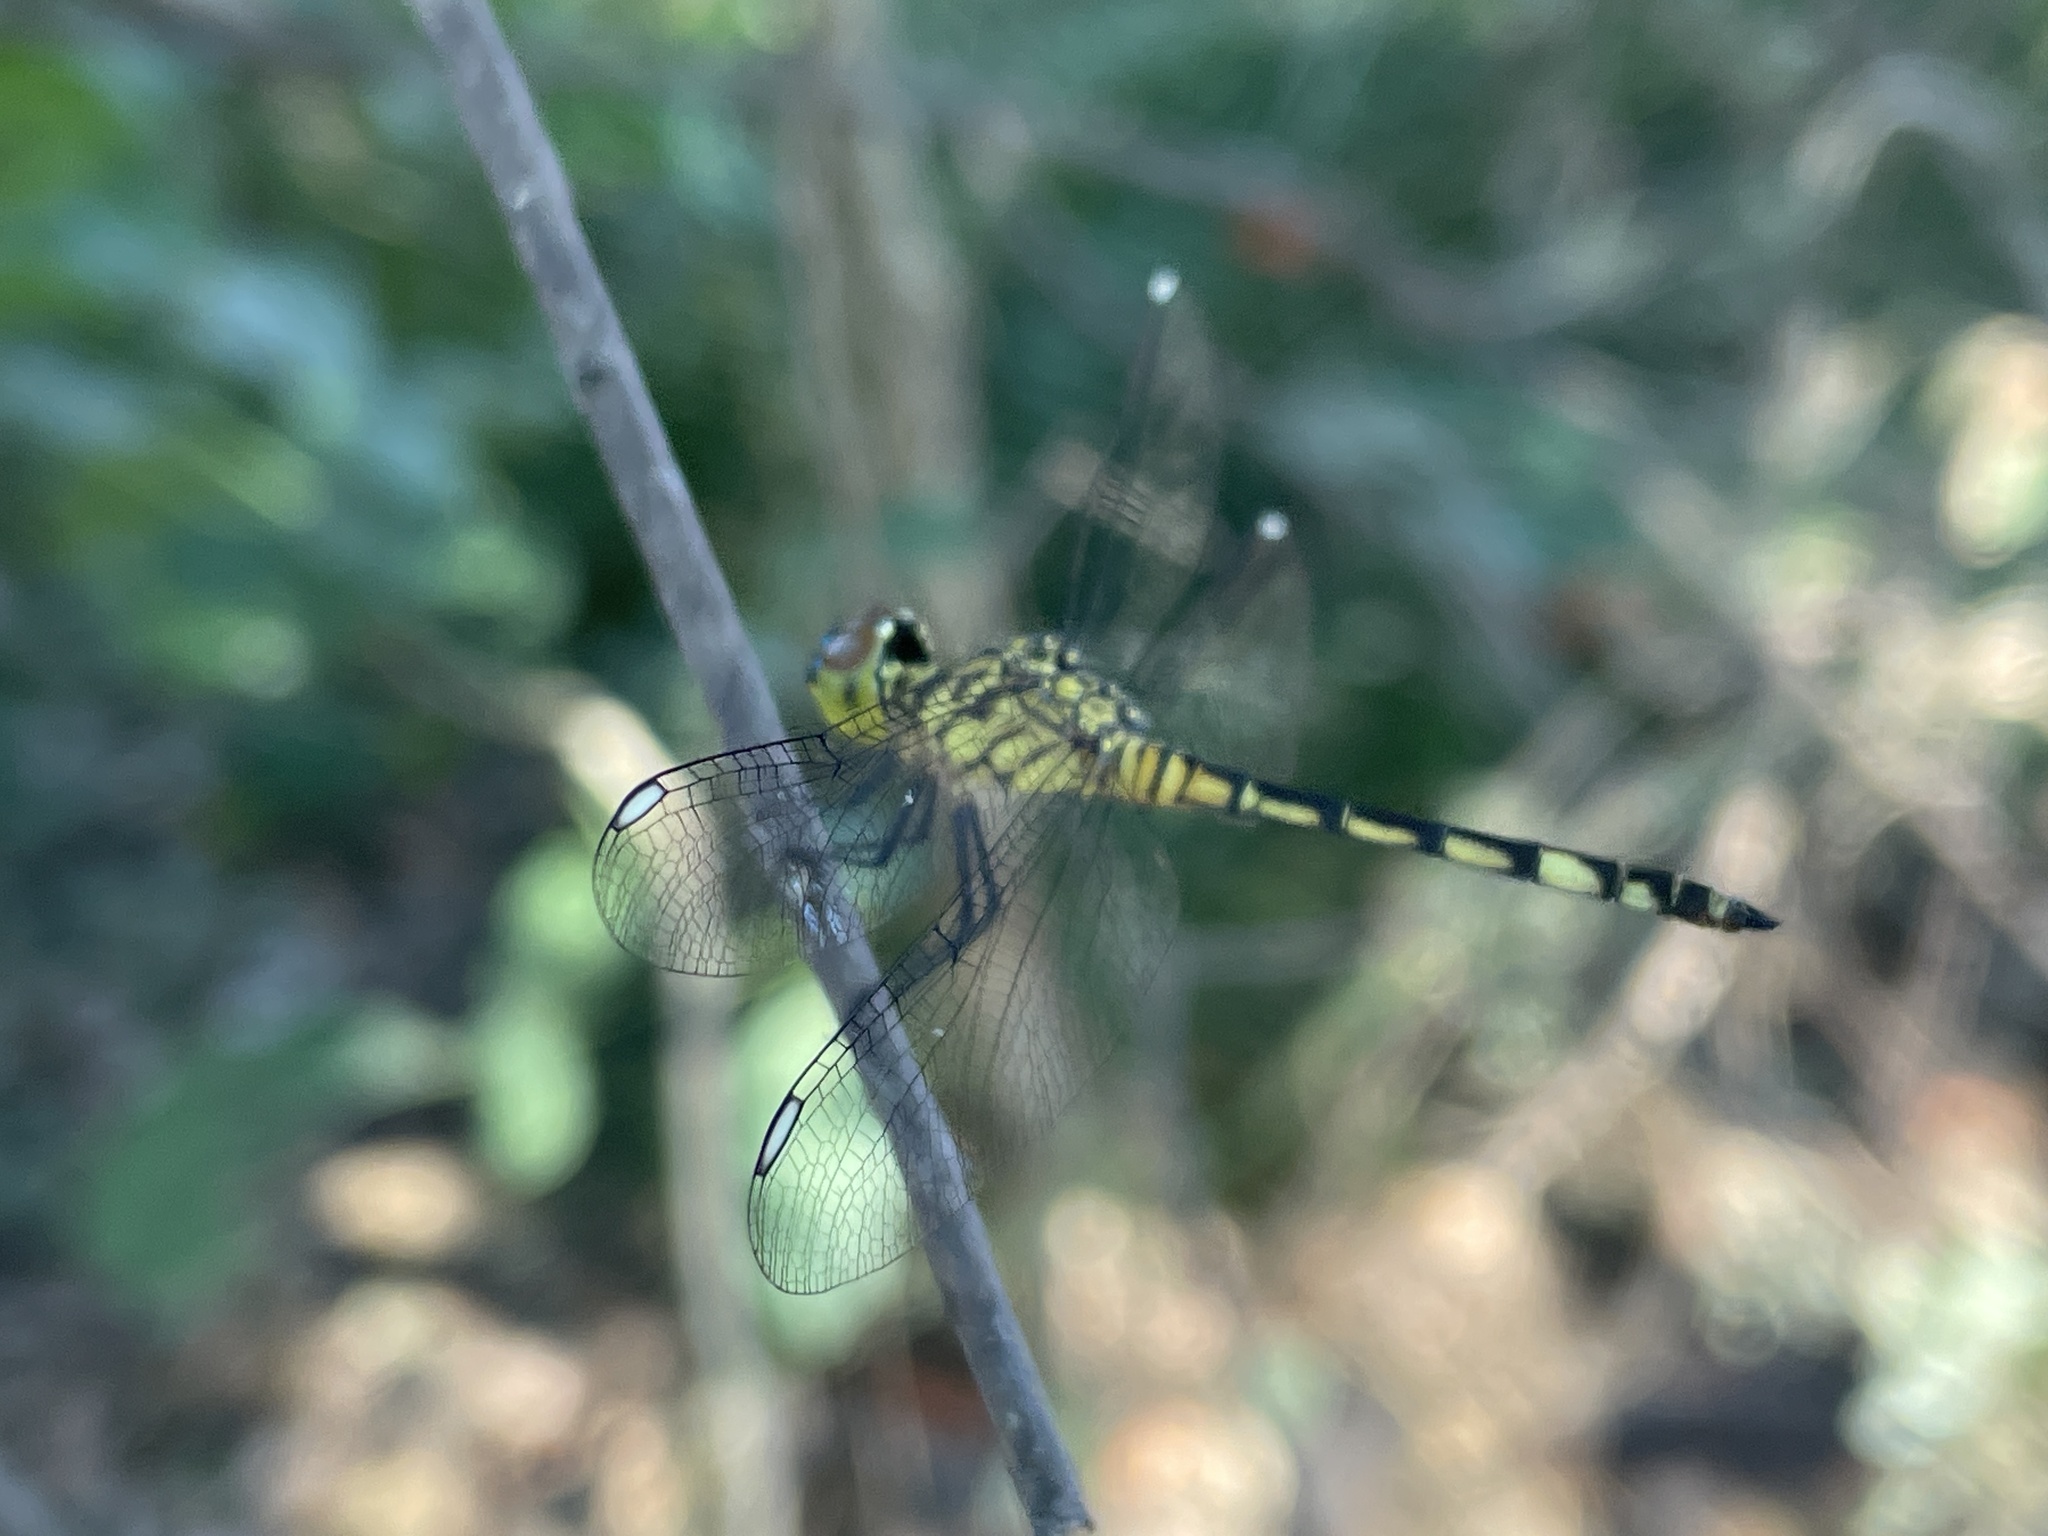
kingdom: Animalia
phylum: Arthropoda
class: Insecta
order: Odonata
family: Libellulidae
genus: Chalcostephia
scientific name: Chalcostephia flavifrons
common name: Inspector
